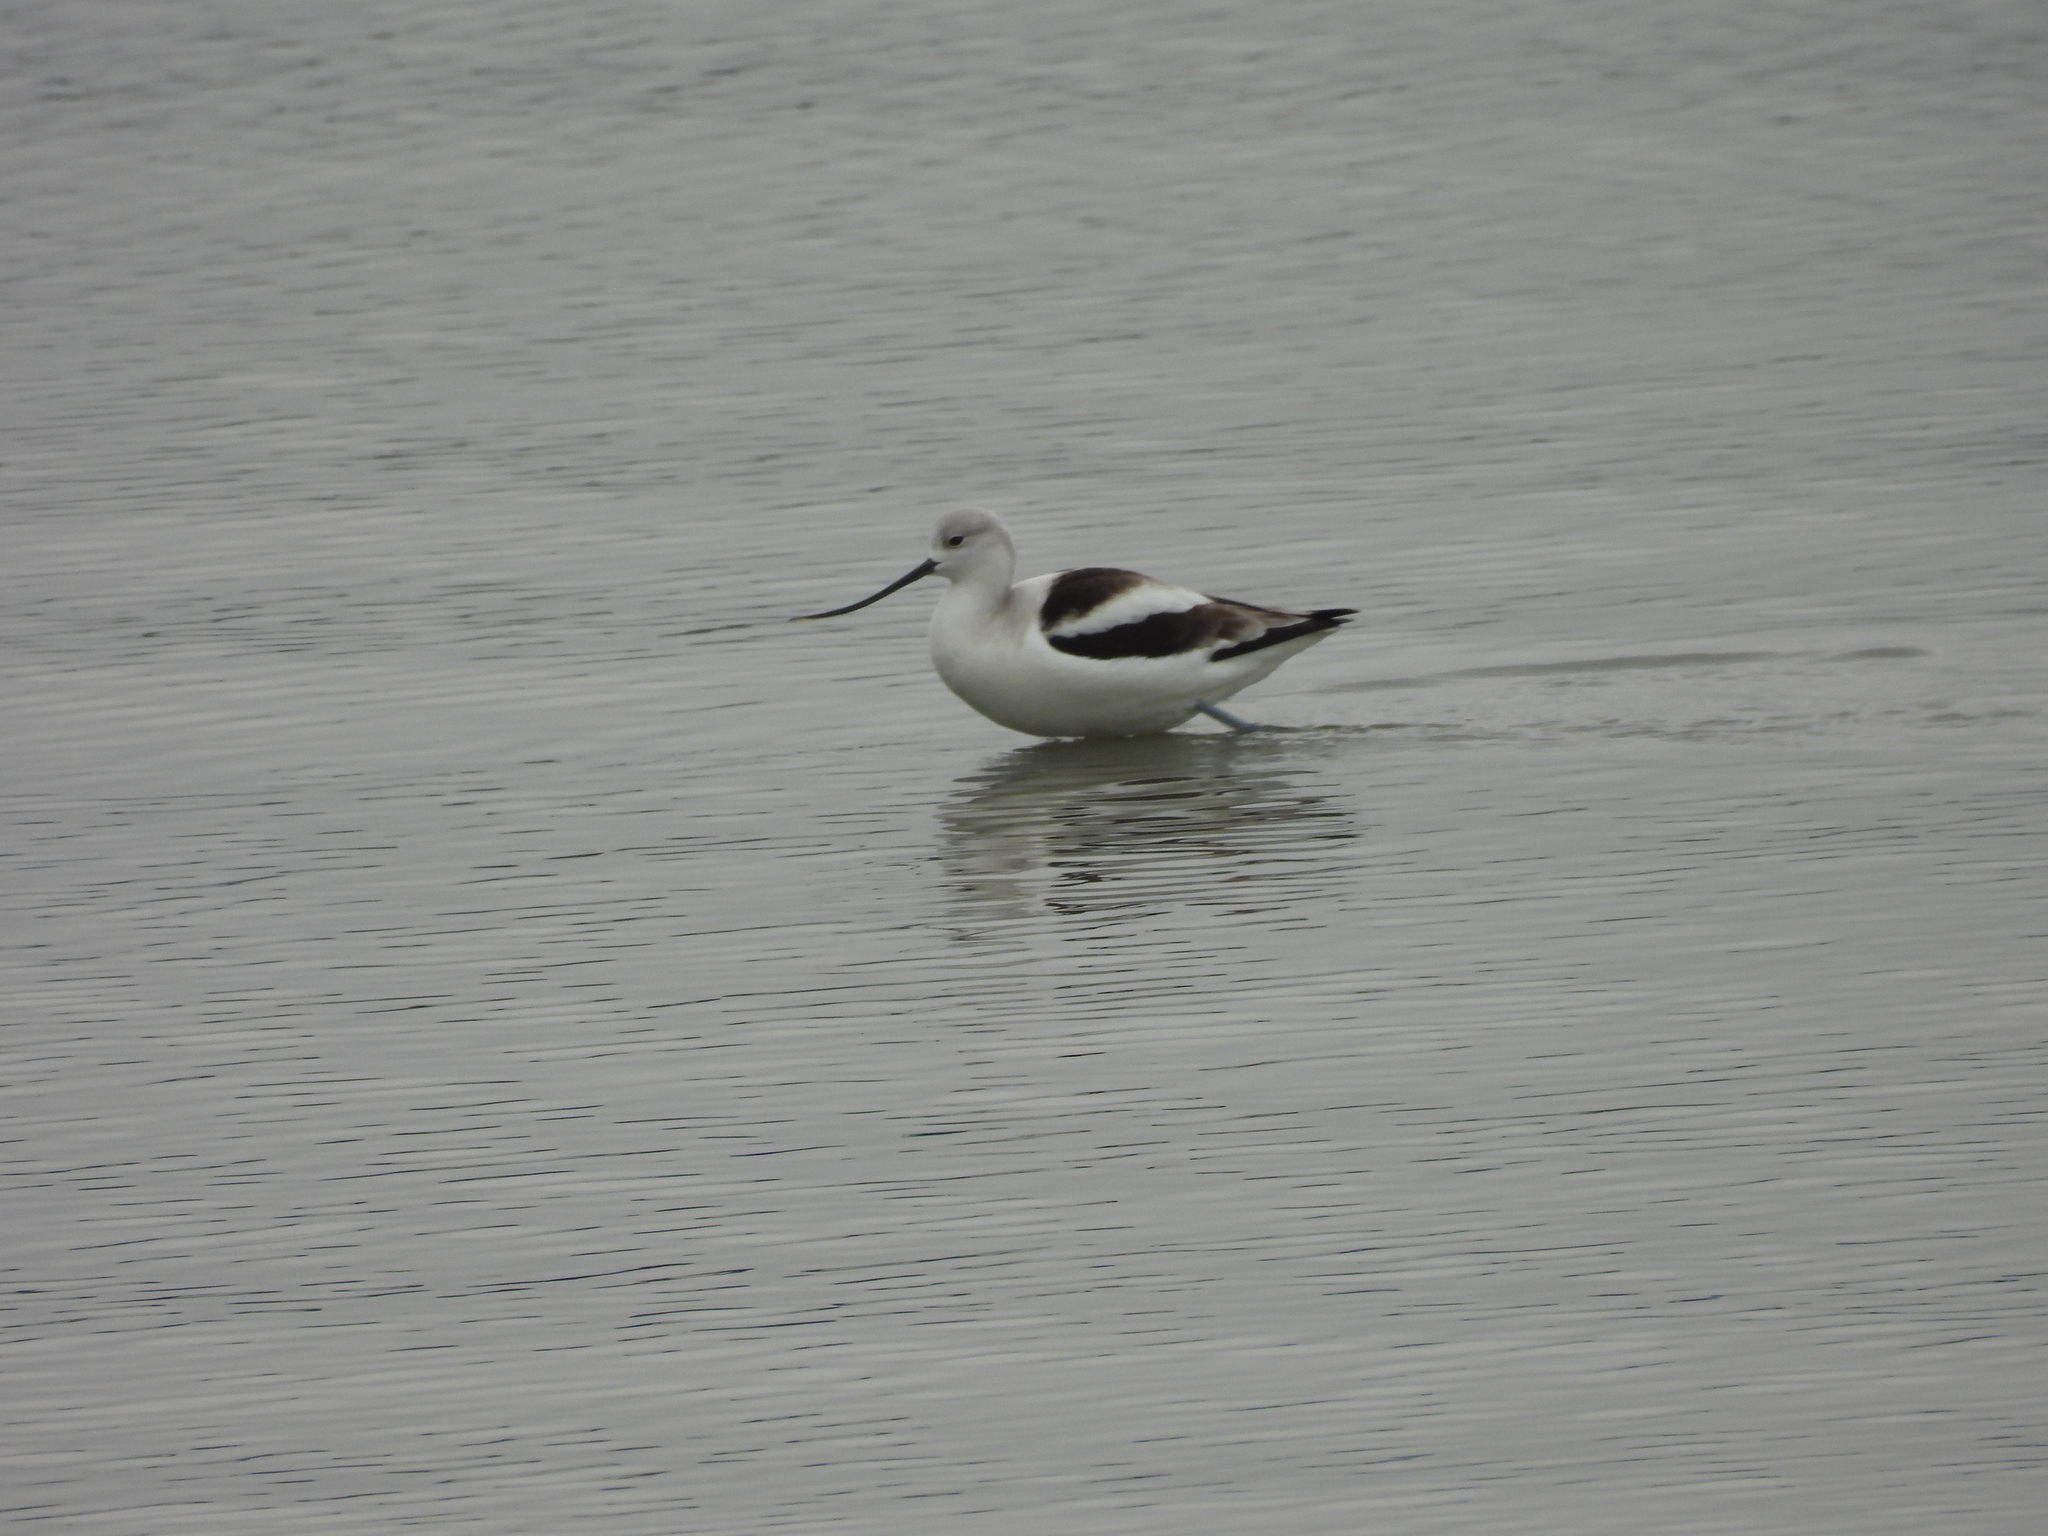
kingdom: Animalia
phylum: Chordata
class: Aves
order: Charadriiformes
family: Recurvirostridae
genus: Recurvirostra
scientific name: Recurvirostra americana
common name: American avocet
